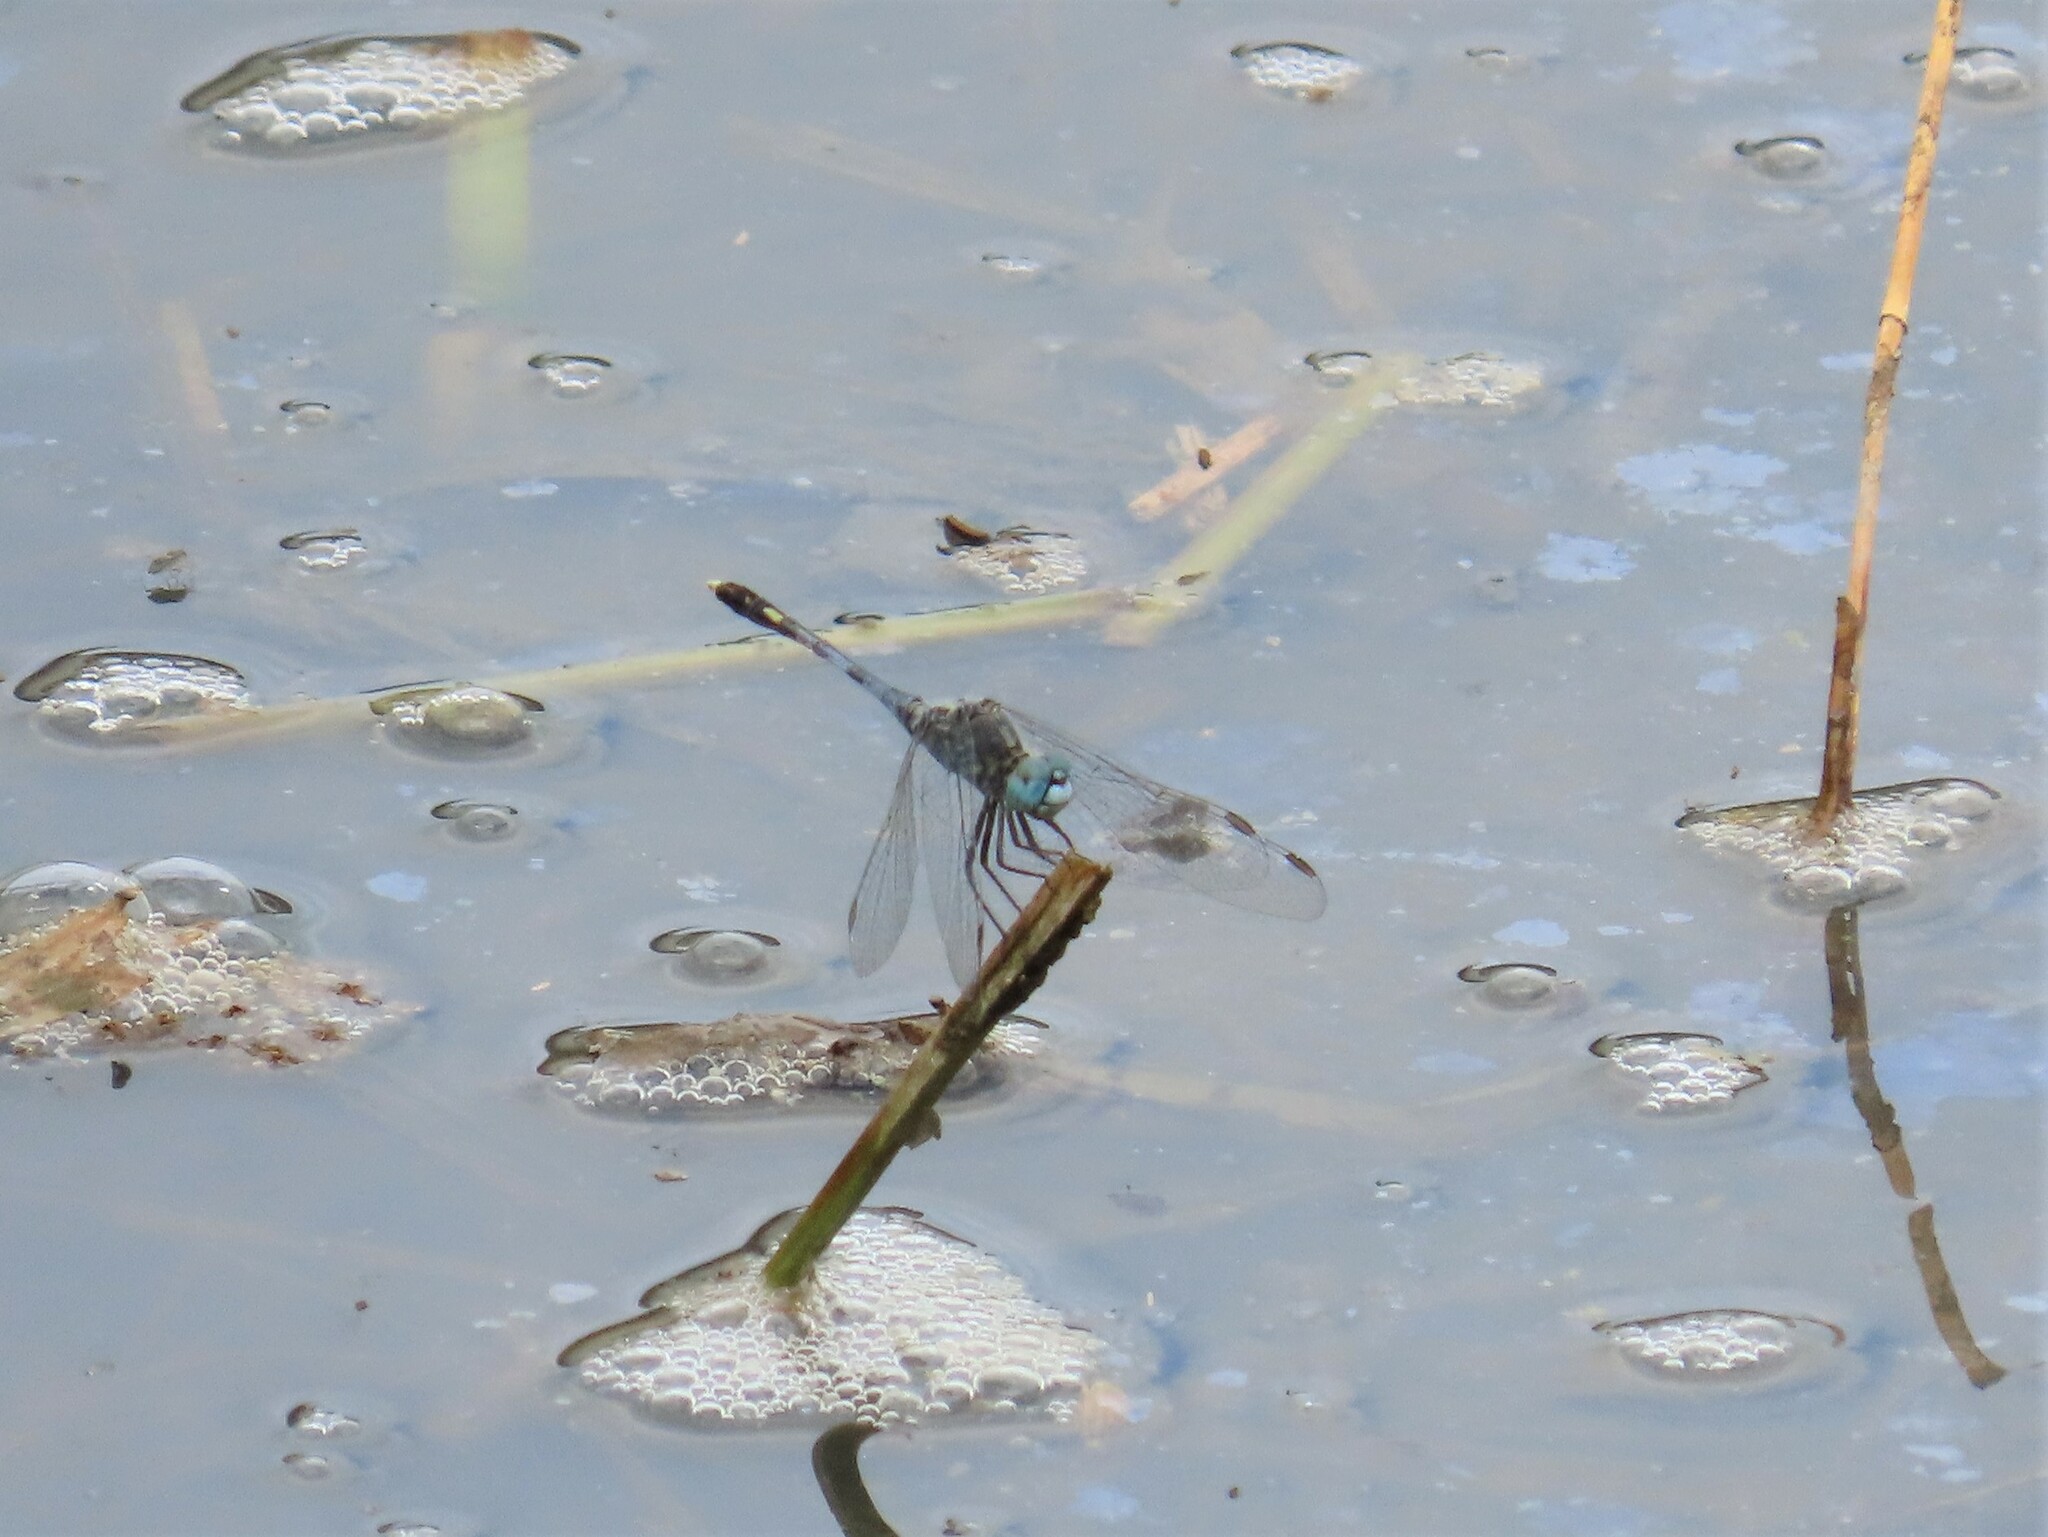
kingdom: Animalia
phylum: Arthropoda
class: Insecta
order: Odonata
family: Libellulidae
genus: Diplacodes
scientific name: Diplacodes trivialis
